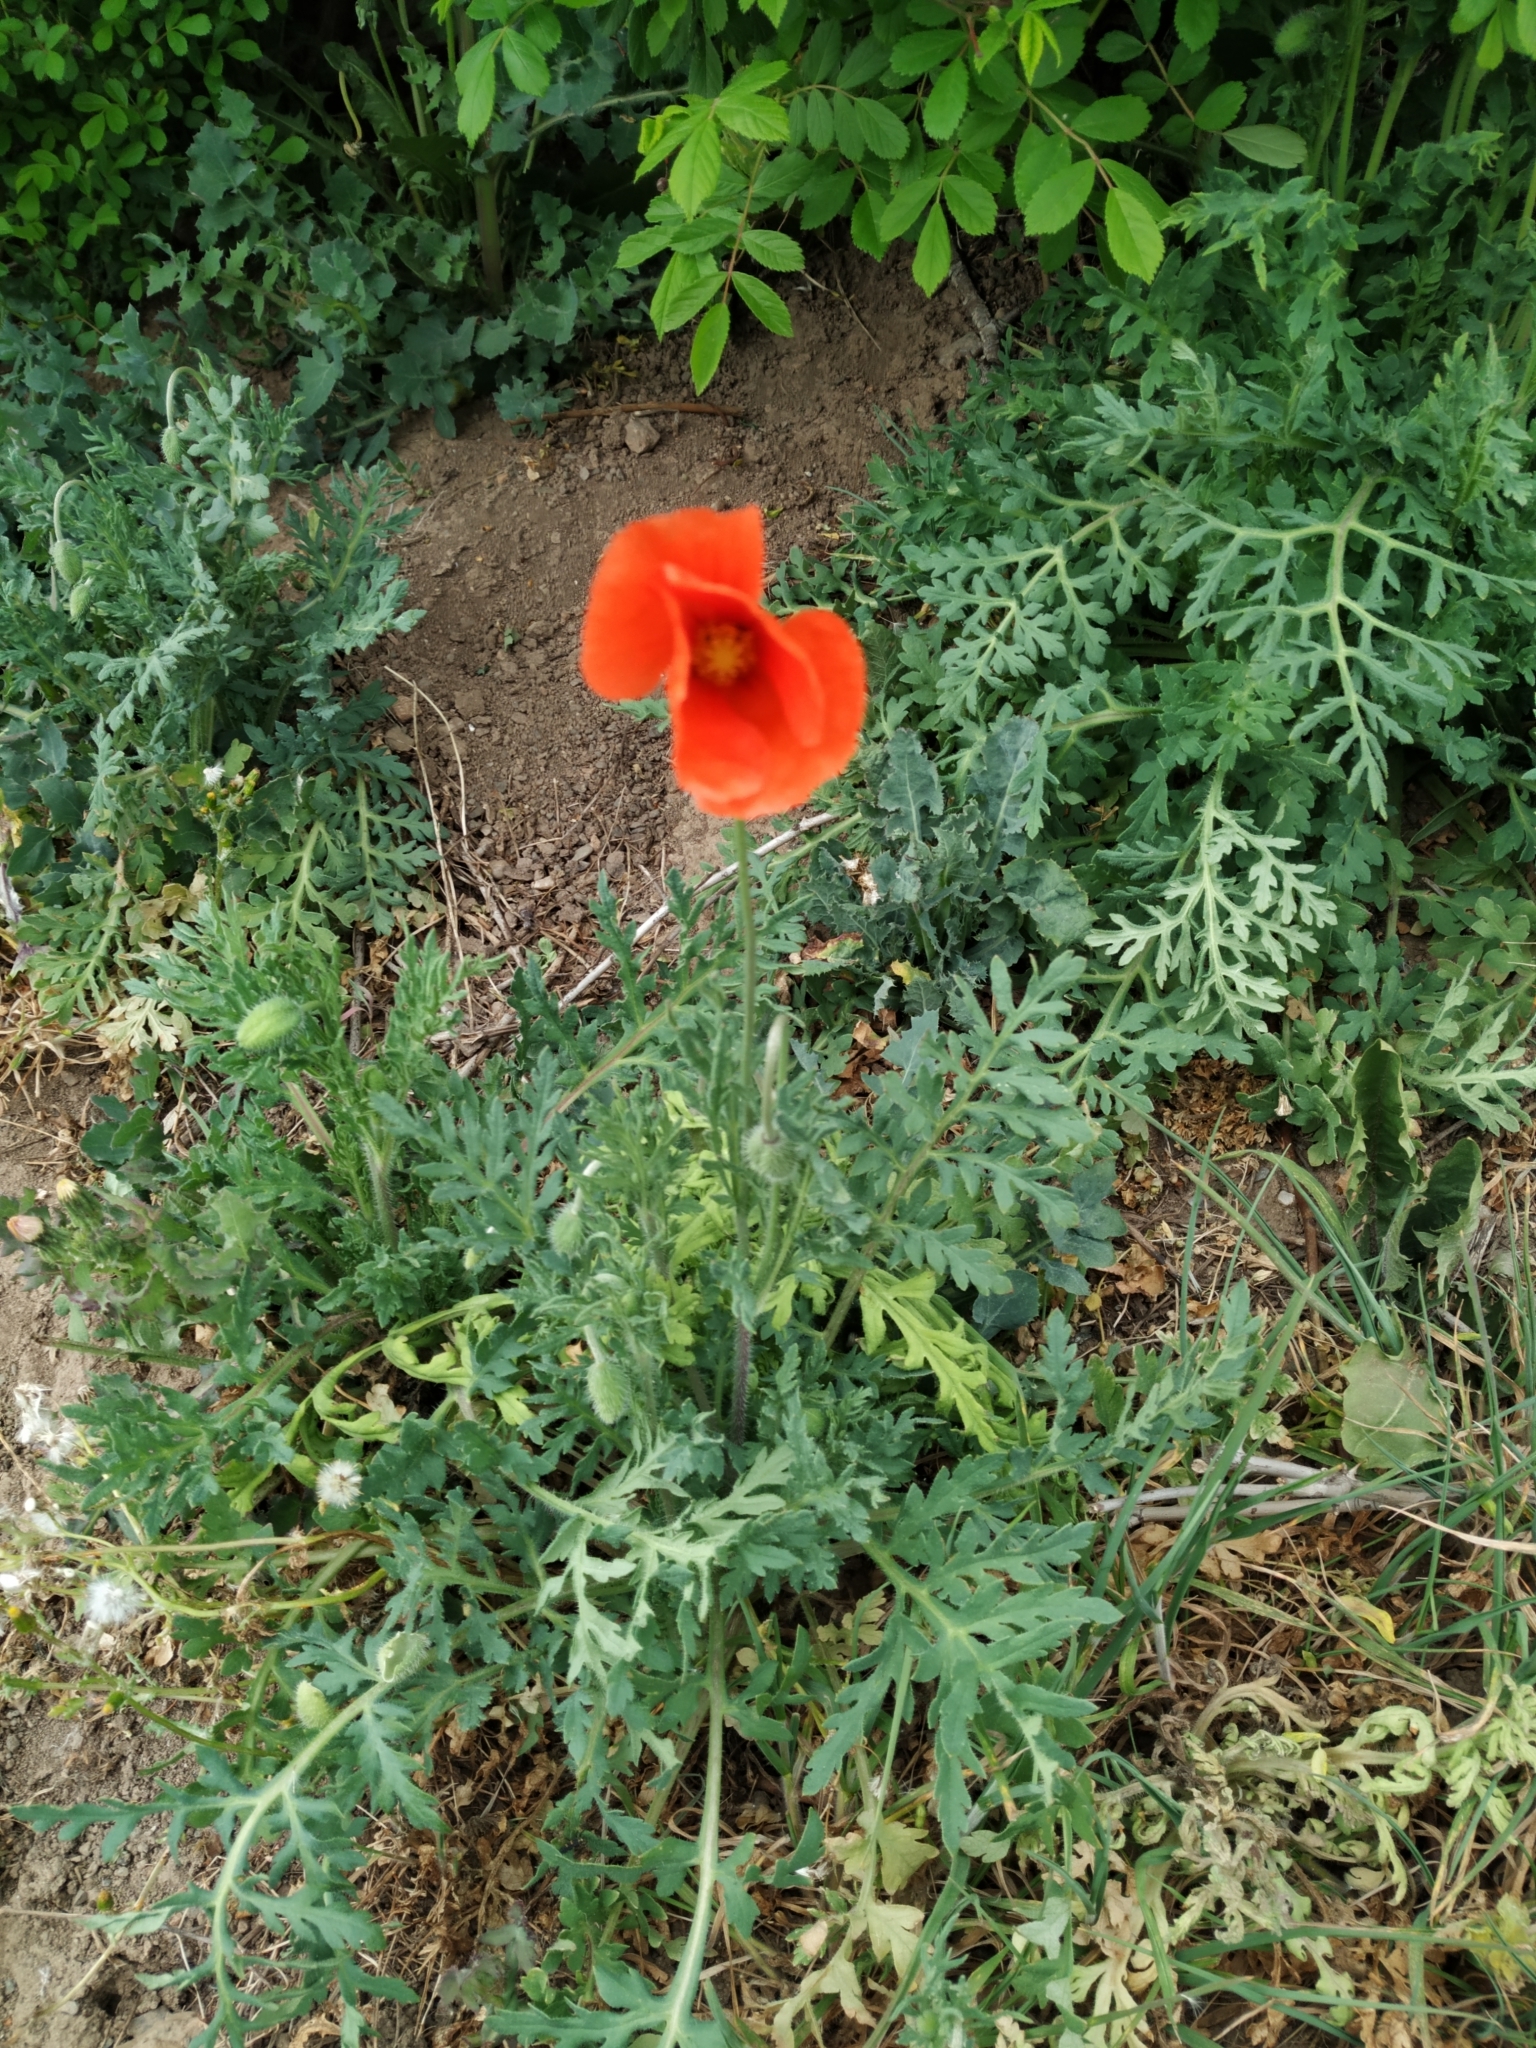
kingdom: Plantae
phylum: Tracheophyta
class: Magnoliopsida
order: Ranunculales
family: Papaveraceae
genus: Papaver
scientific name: Papaver rhoeas
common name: Corn poppy
